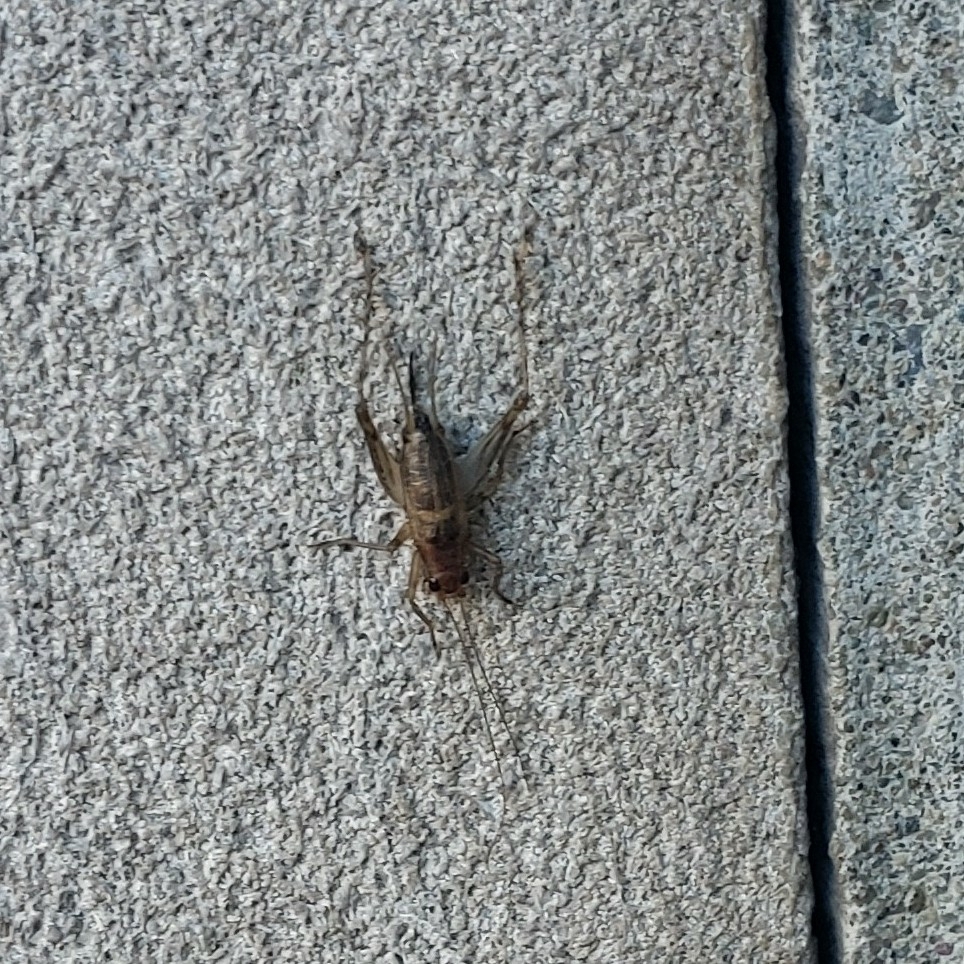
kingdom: Animalia
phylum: Arthropoda
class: Insecta
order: Orthoptera
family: Trigonidiidae
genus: Anaxipha
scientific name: Anaxipha exigua
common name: Say's bush cricket
